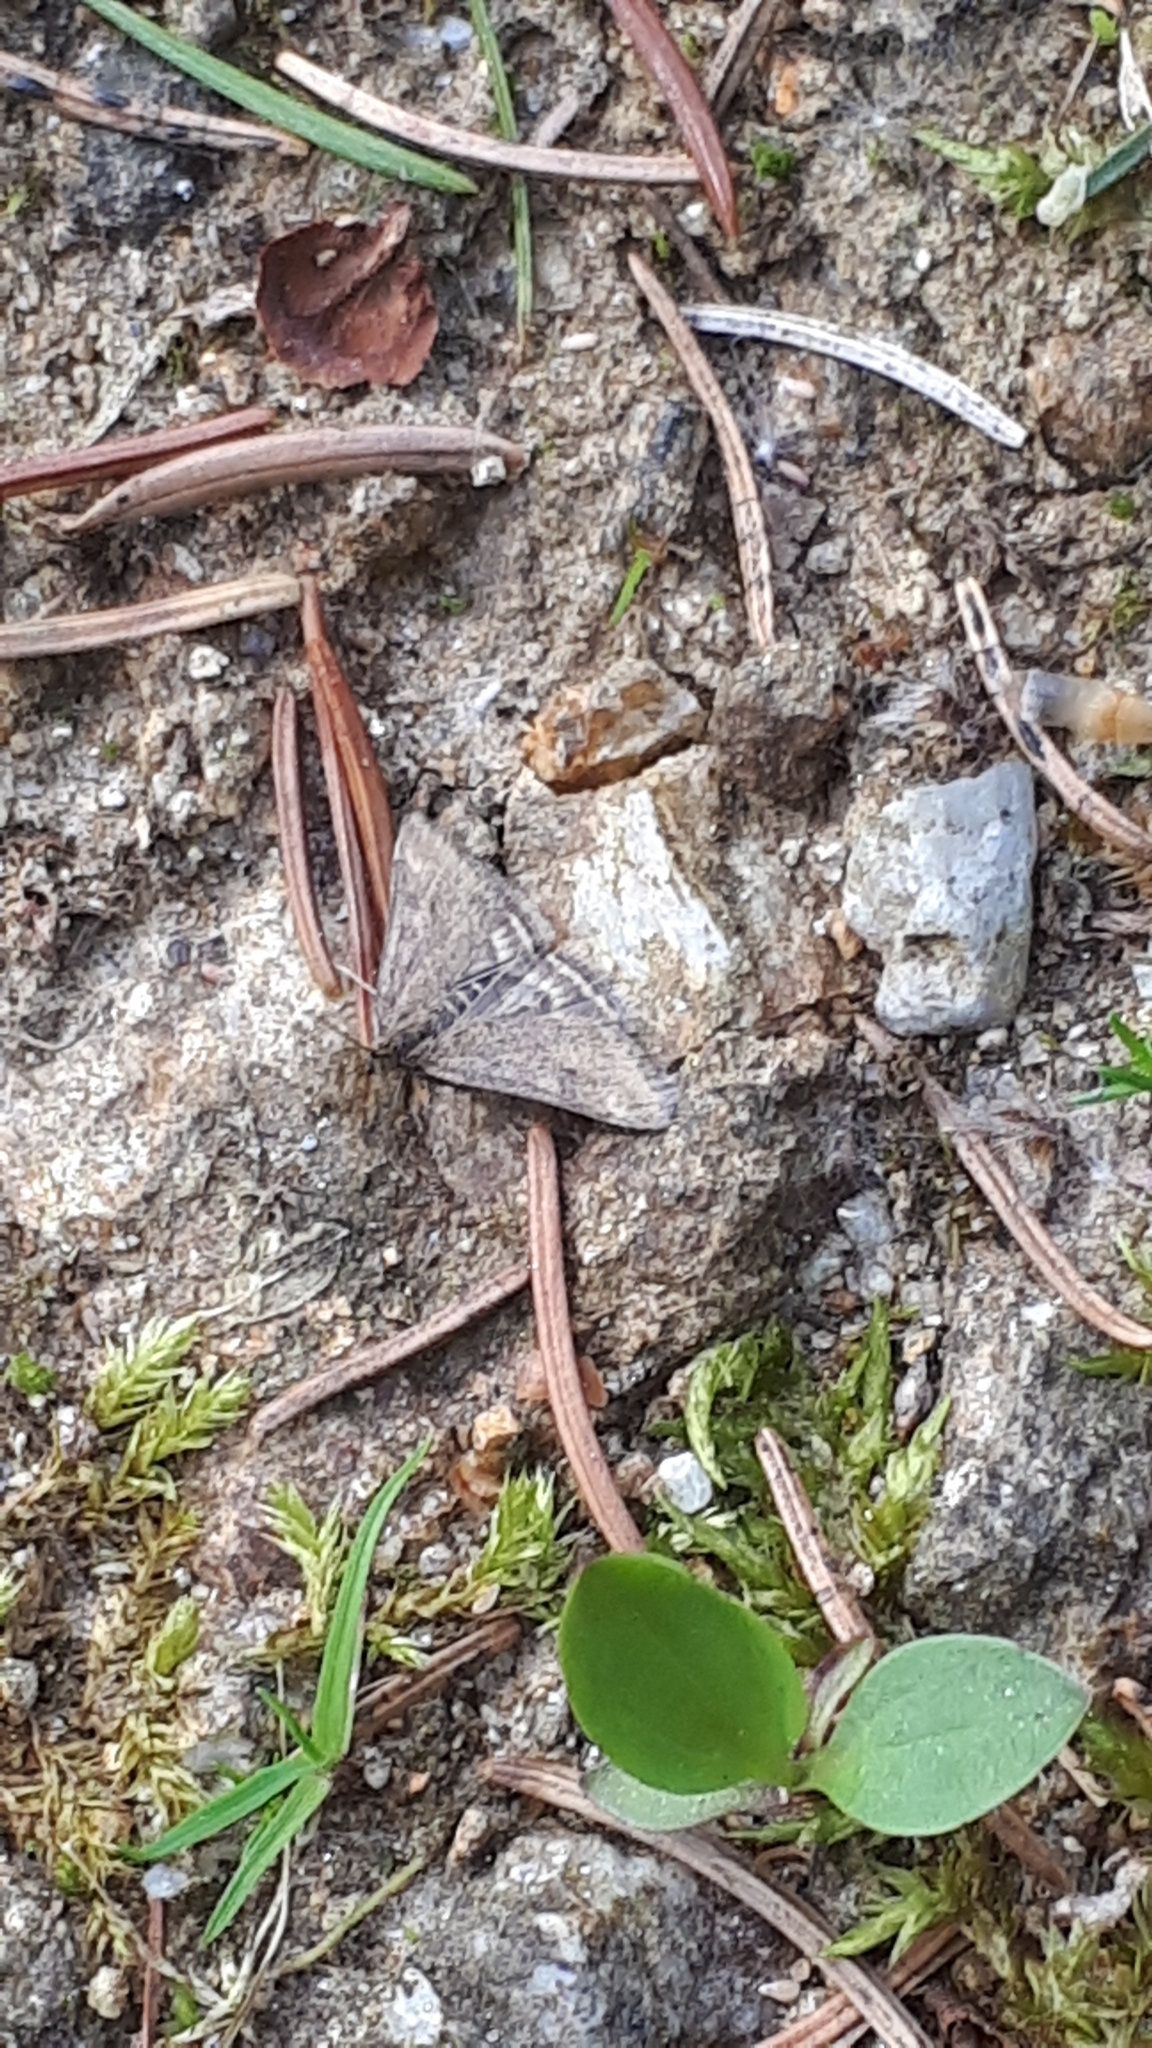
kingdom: Animalia
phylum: Arthropoda
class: Insecta
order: Lepidoptera
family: Crambidae
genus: Pyrausta
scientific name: Pyrausta despicata
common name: Straw-barred pearl
